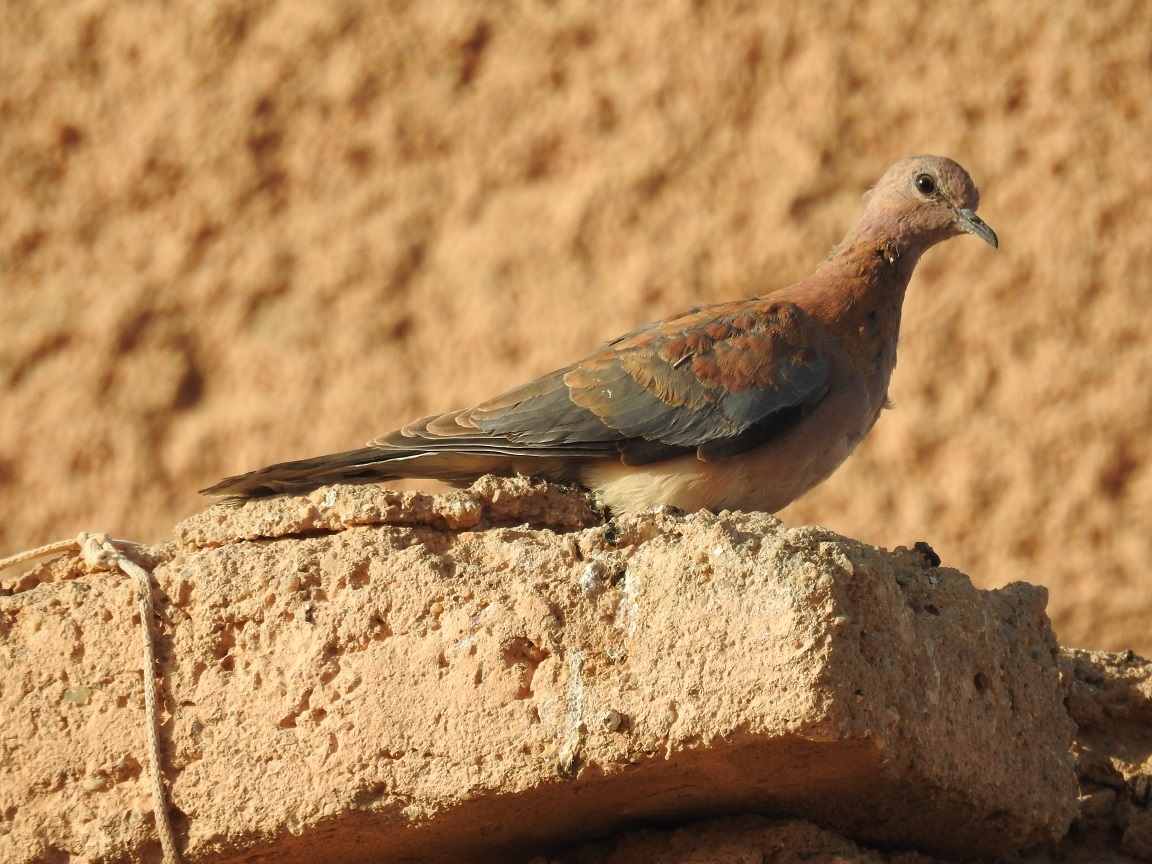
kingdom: Animalia
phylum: Chordata
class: Aves
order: Columbiformes
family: Columbidae
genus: Spilopelia
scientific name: Spilopelia senegalensis
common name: Laughing dove
